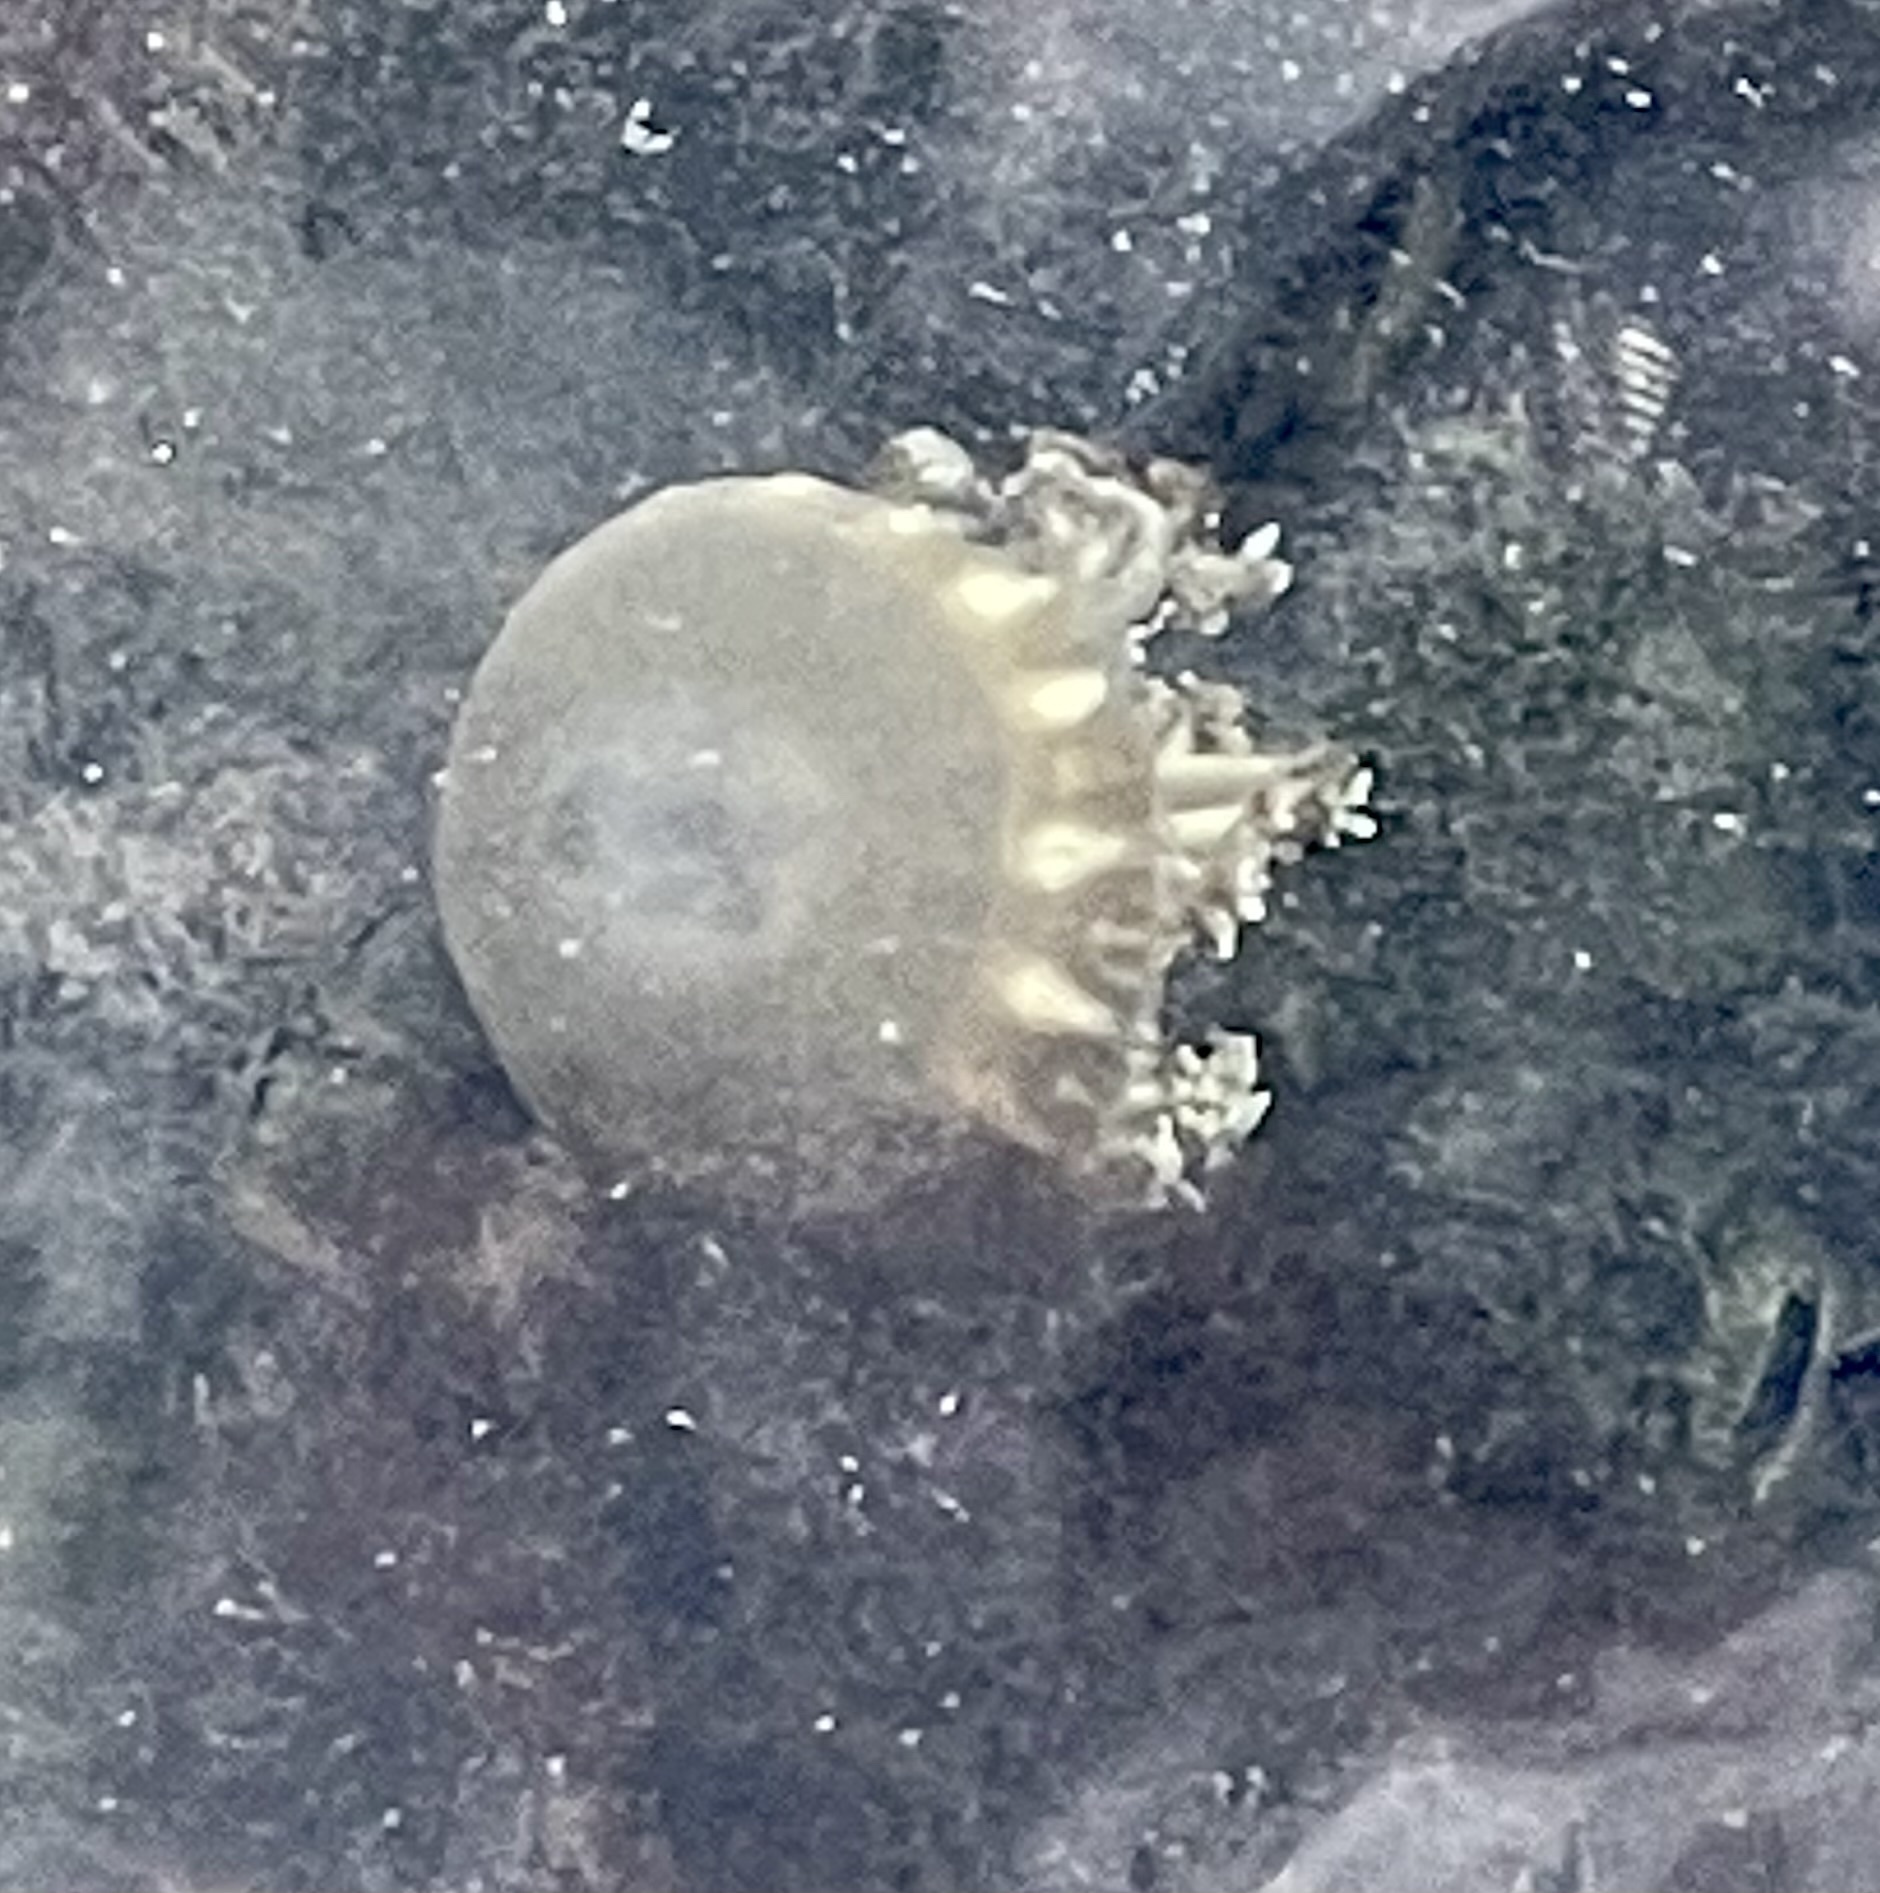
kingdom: Animalia
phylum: Cnidaria
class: Scyphozoa
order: Rhizostomeae
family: Cassiopeidae
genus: Cassiopea
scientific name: Cassiopea andromeda
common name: Upside-down jellyfish
